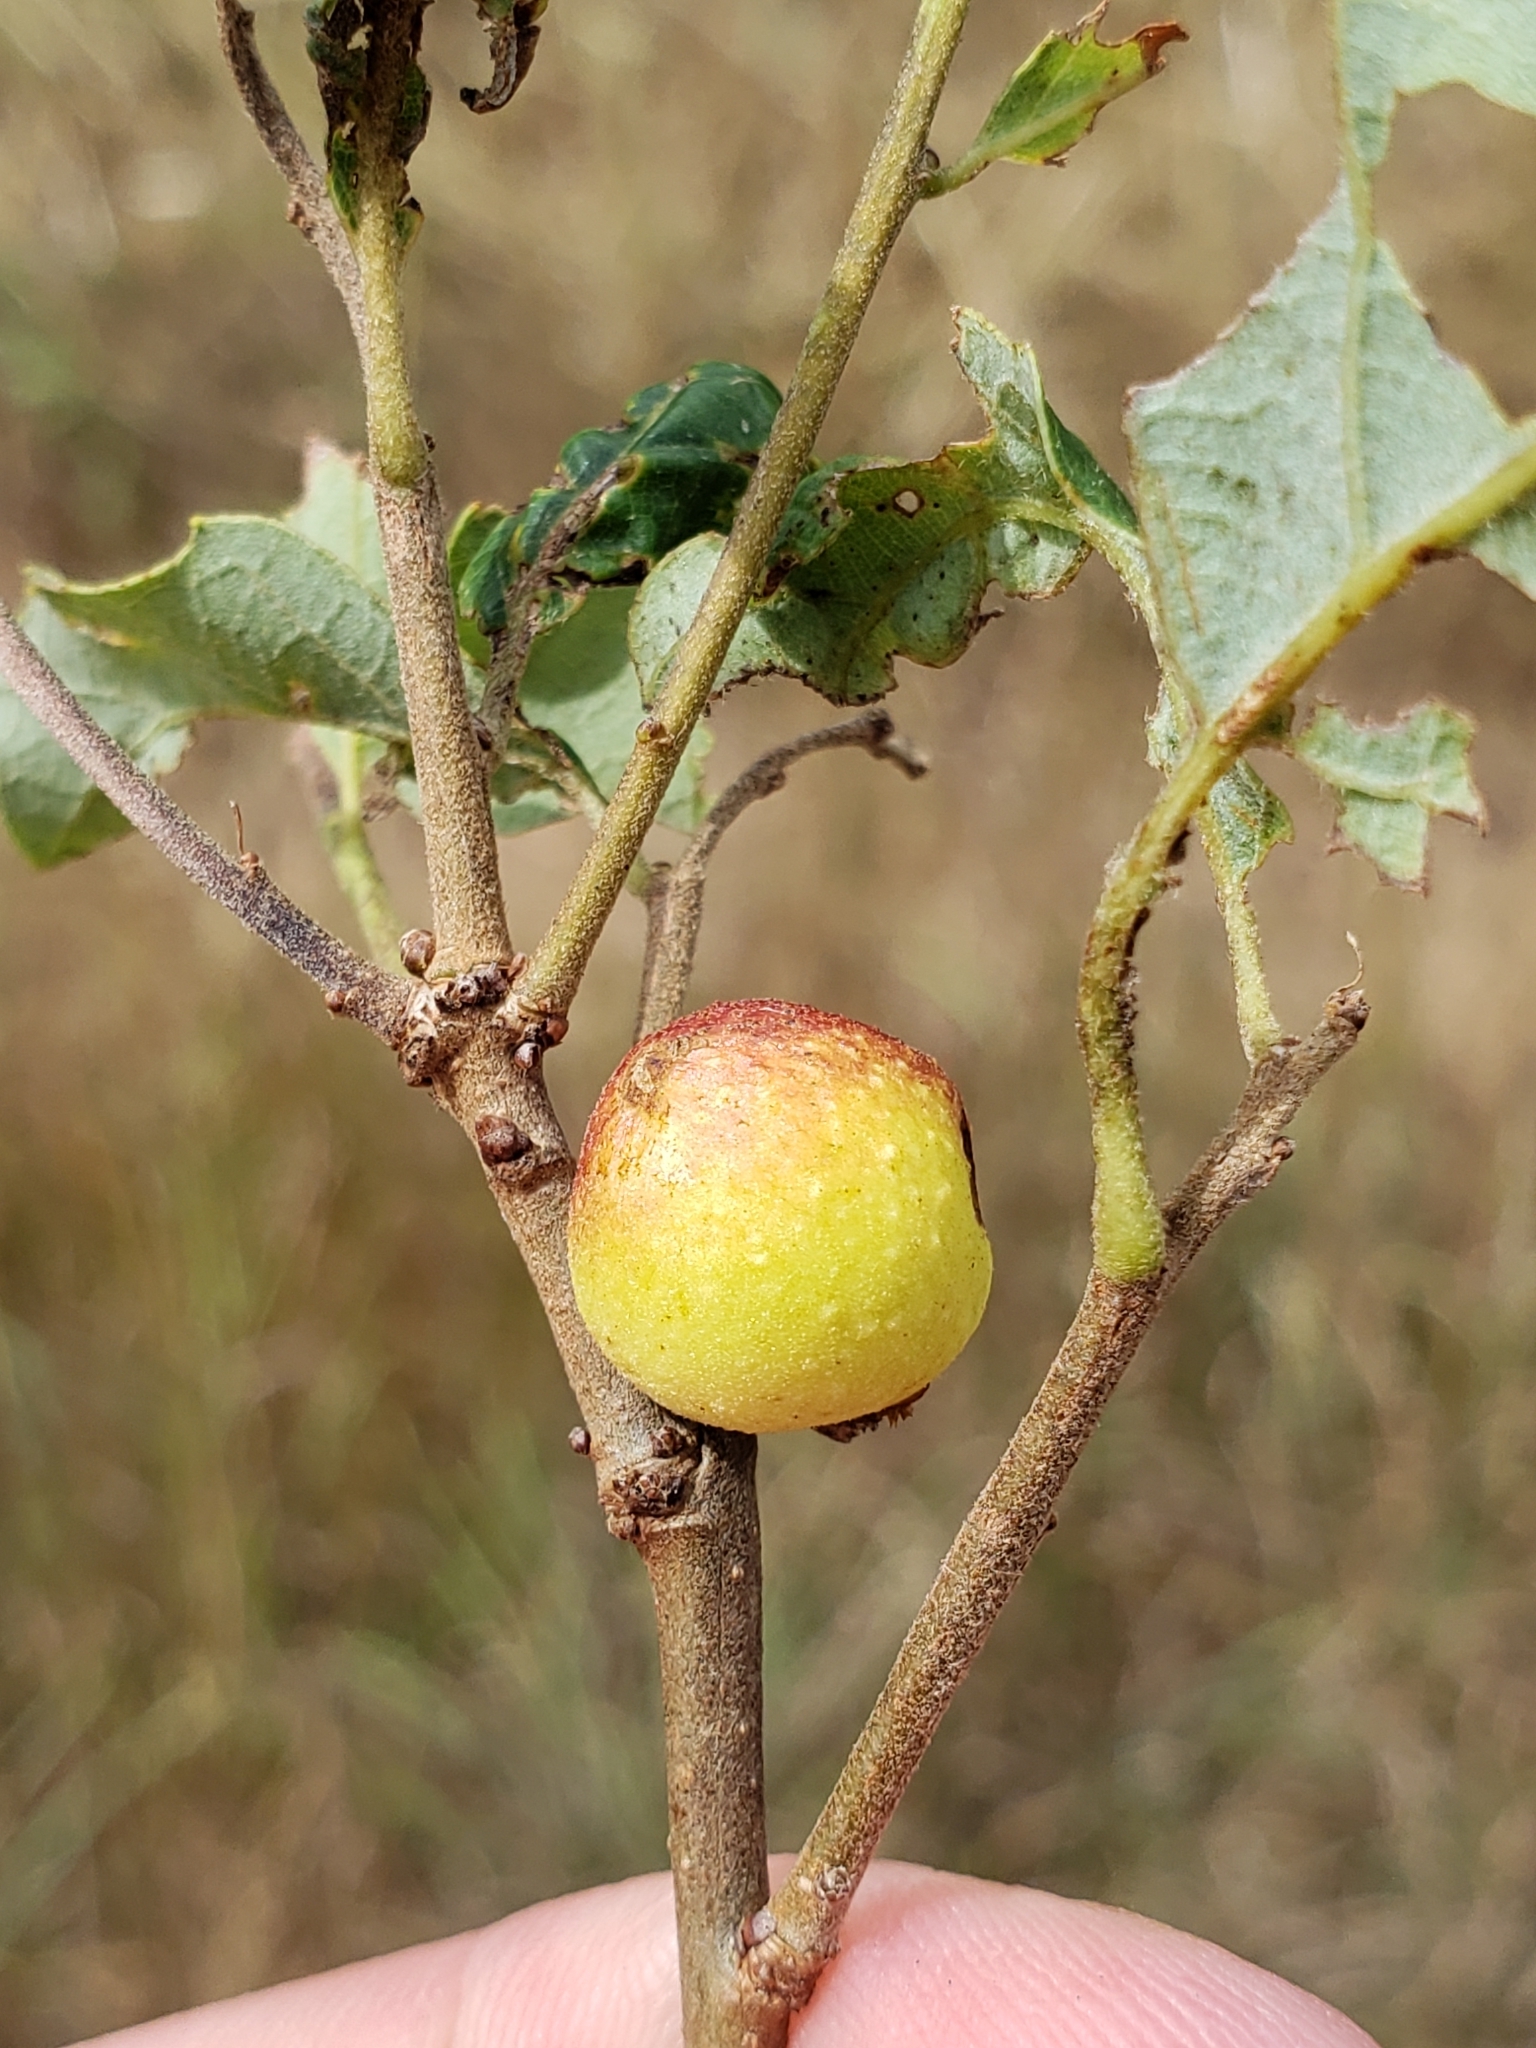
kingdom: Animalia
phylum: Arthropoda
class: Insecta
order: Hymenoptera
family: Cynipidae
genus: Disholcaspis
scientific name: Disholcaspis quercusglobulus
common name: Round bullet gall wasp
